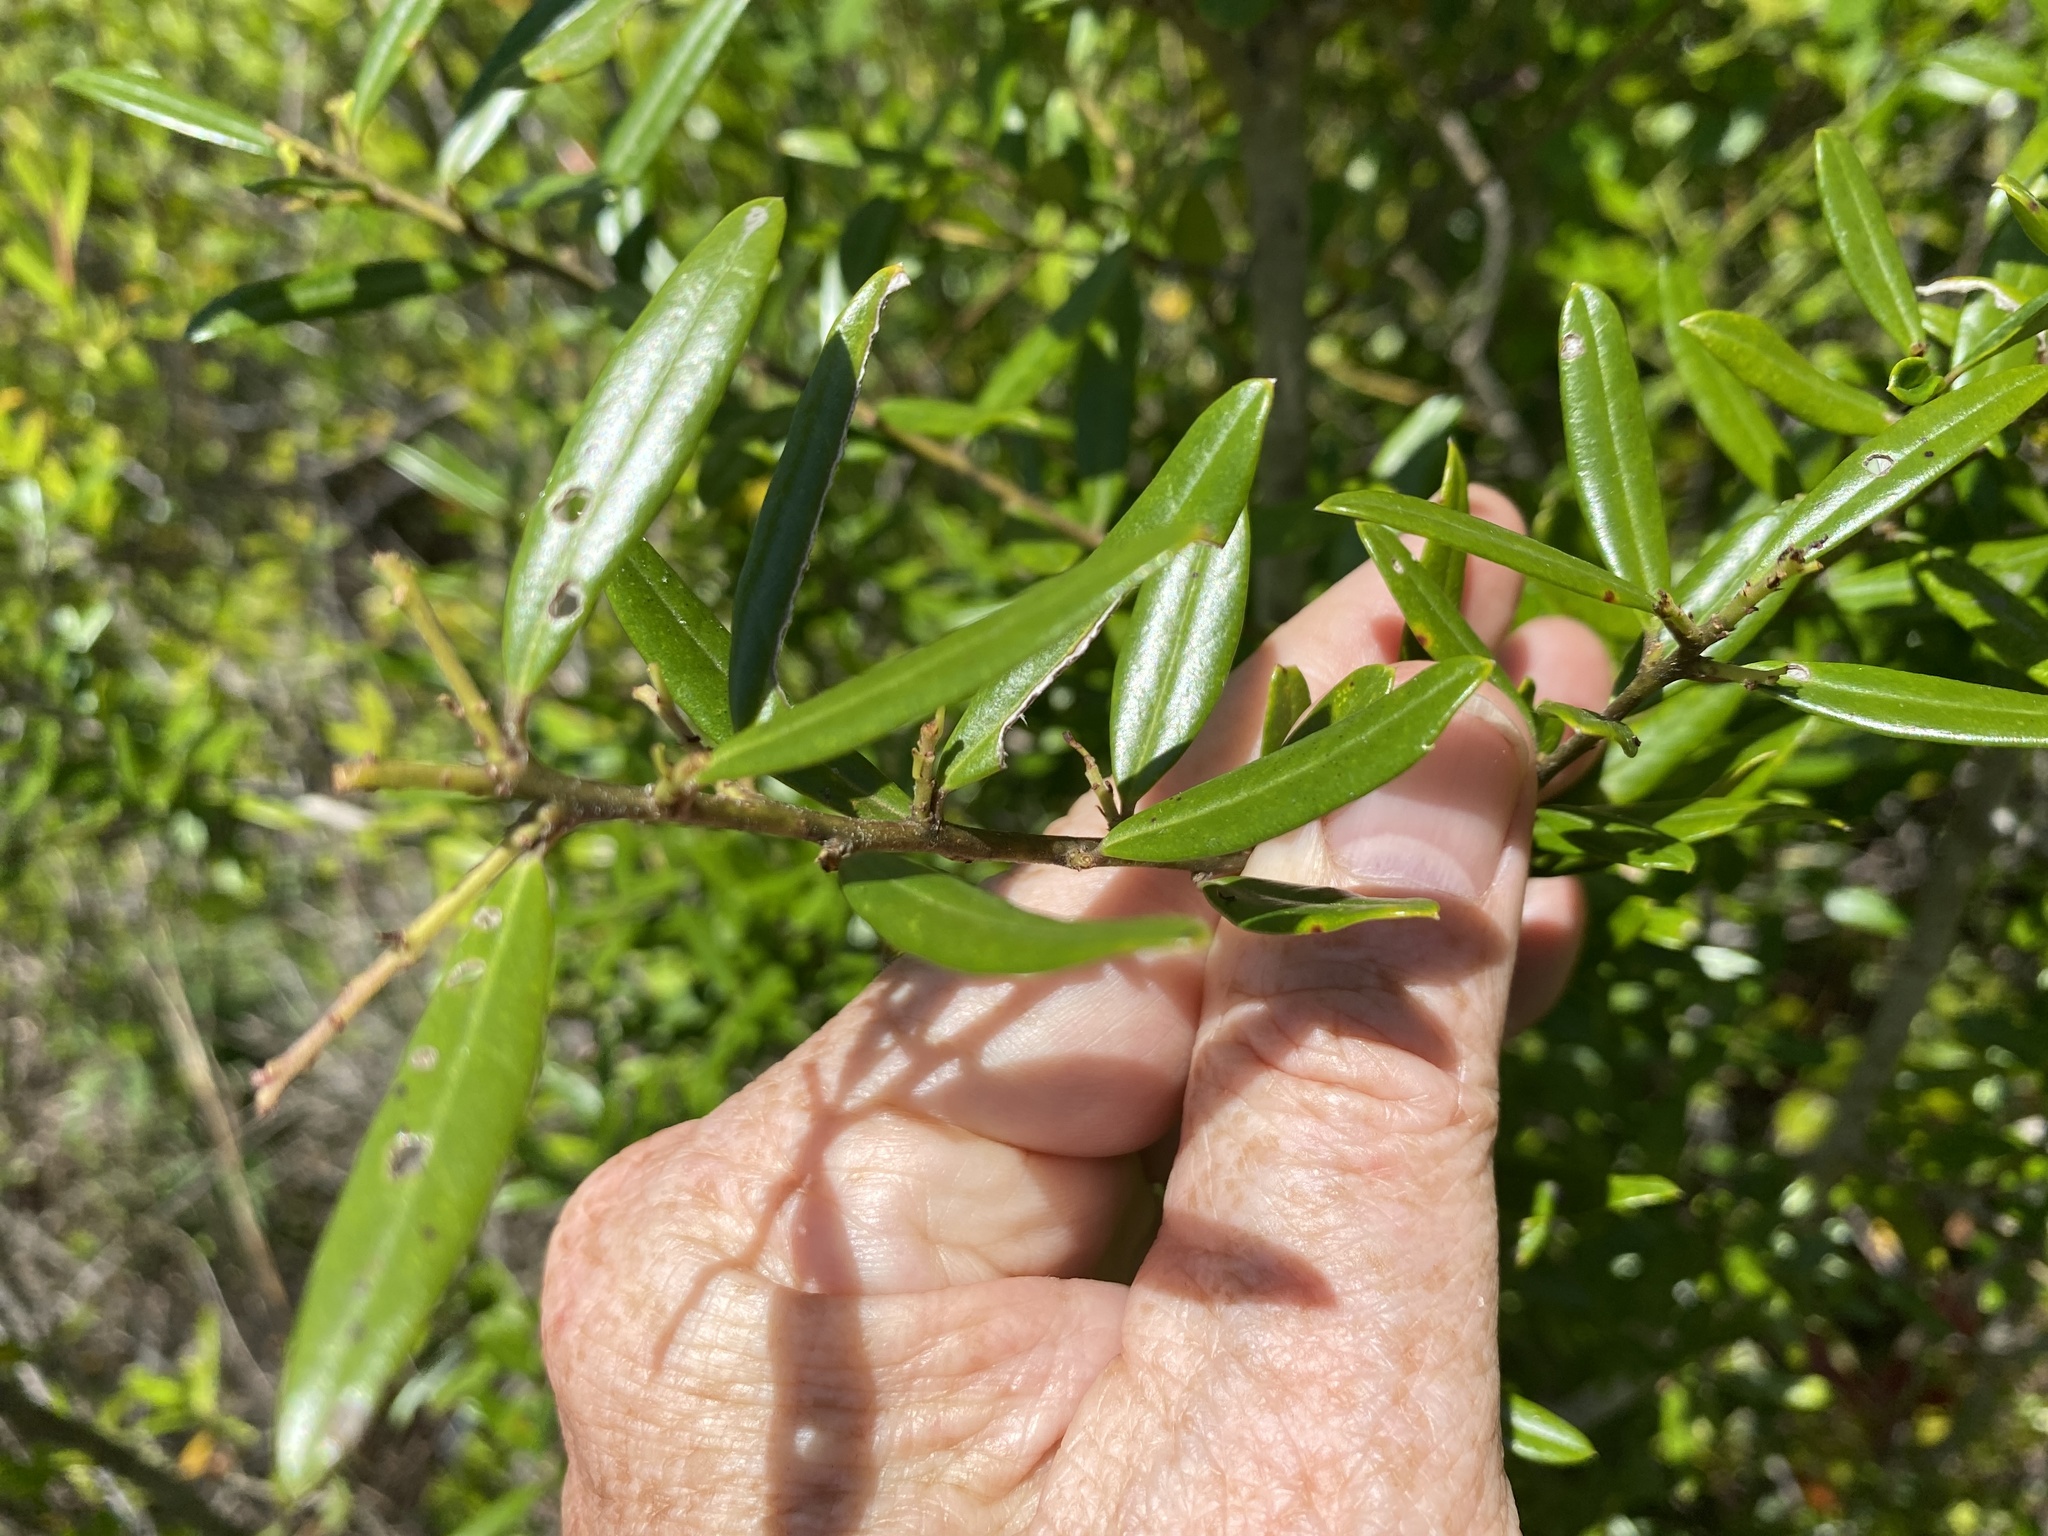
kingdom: Plantae
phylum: Tracheophyta
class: Magnoliopsida
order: Aquifoliales
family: Aquifoliaceae
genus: Ilex
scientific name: Ilex myrtifolia
